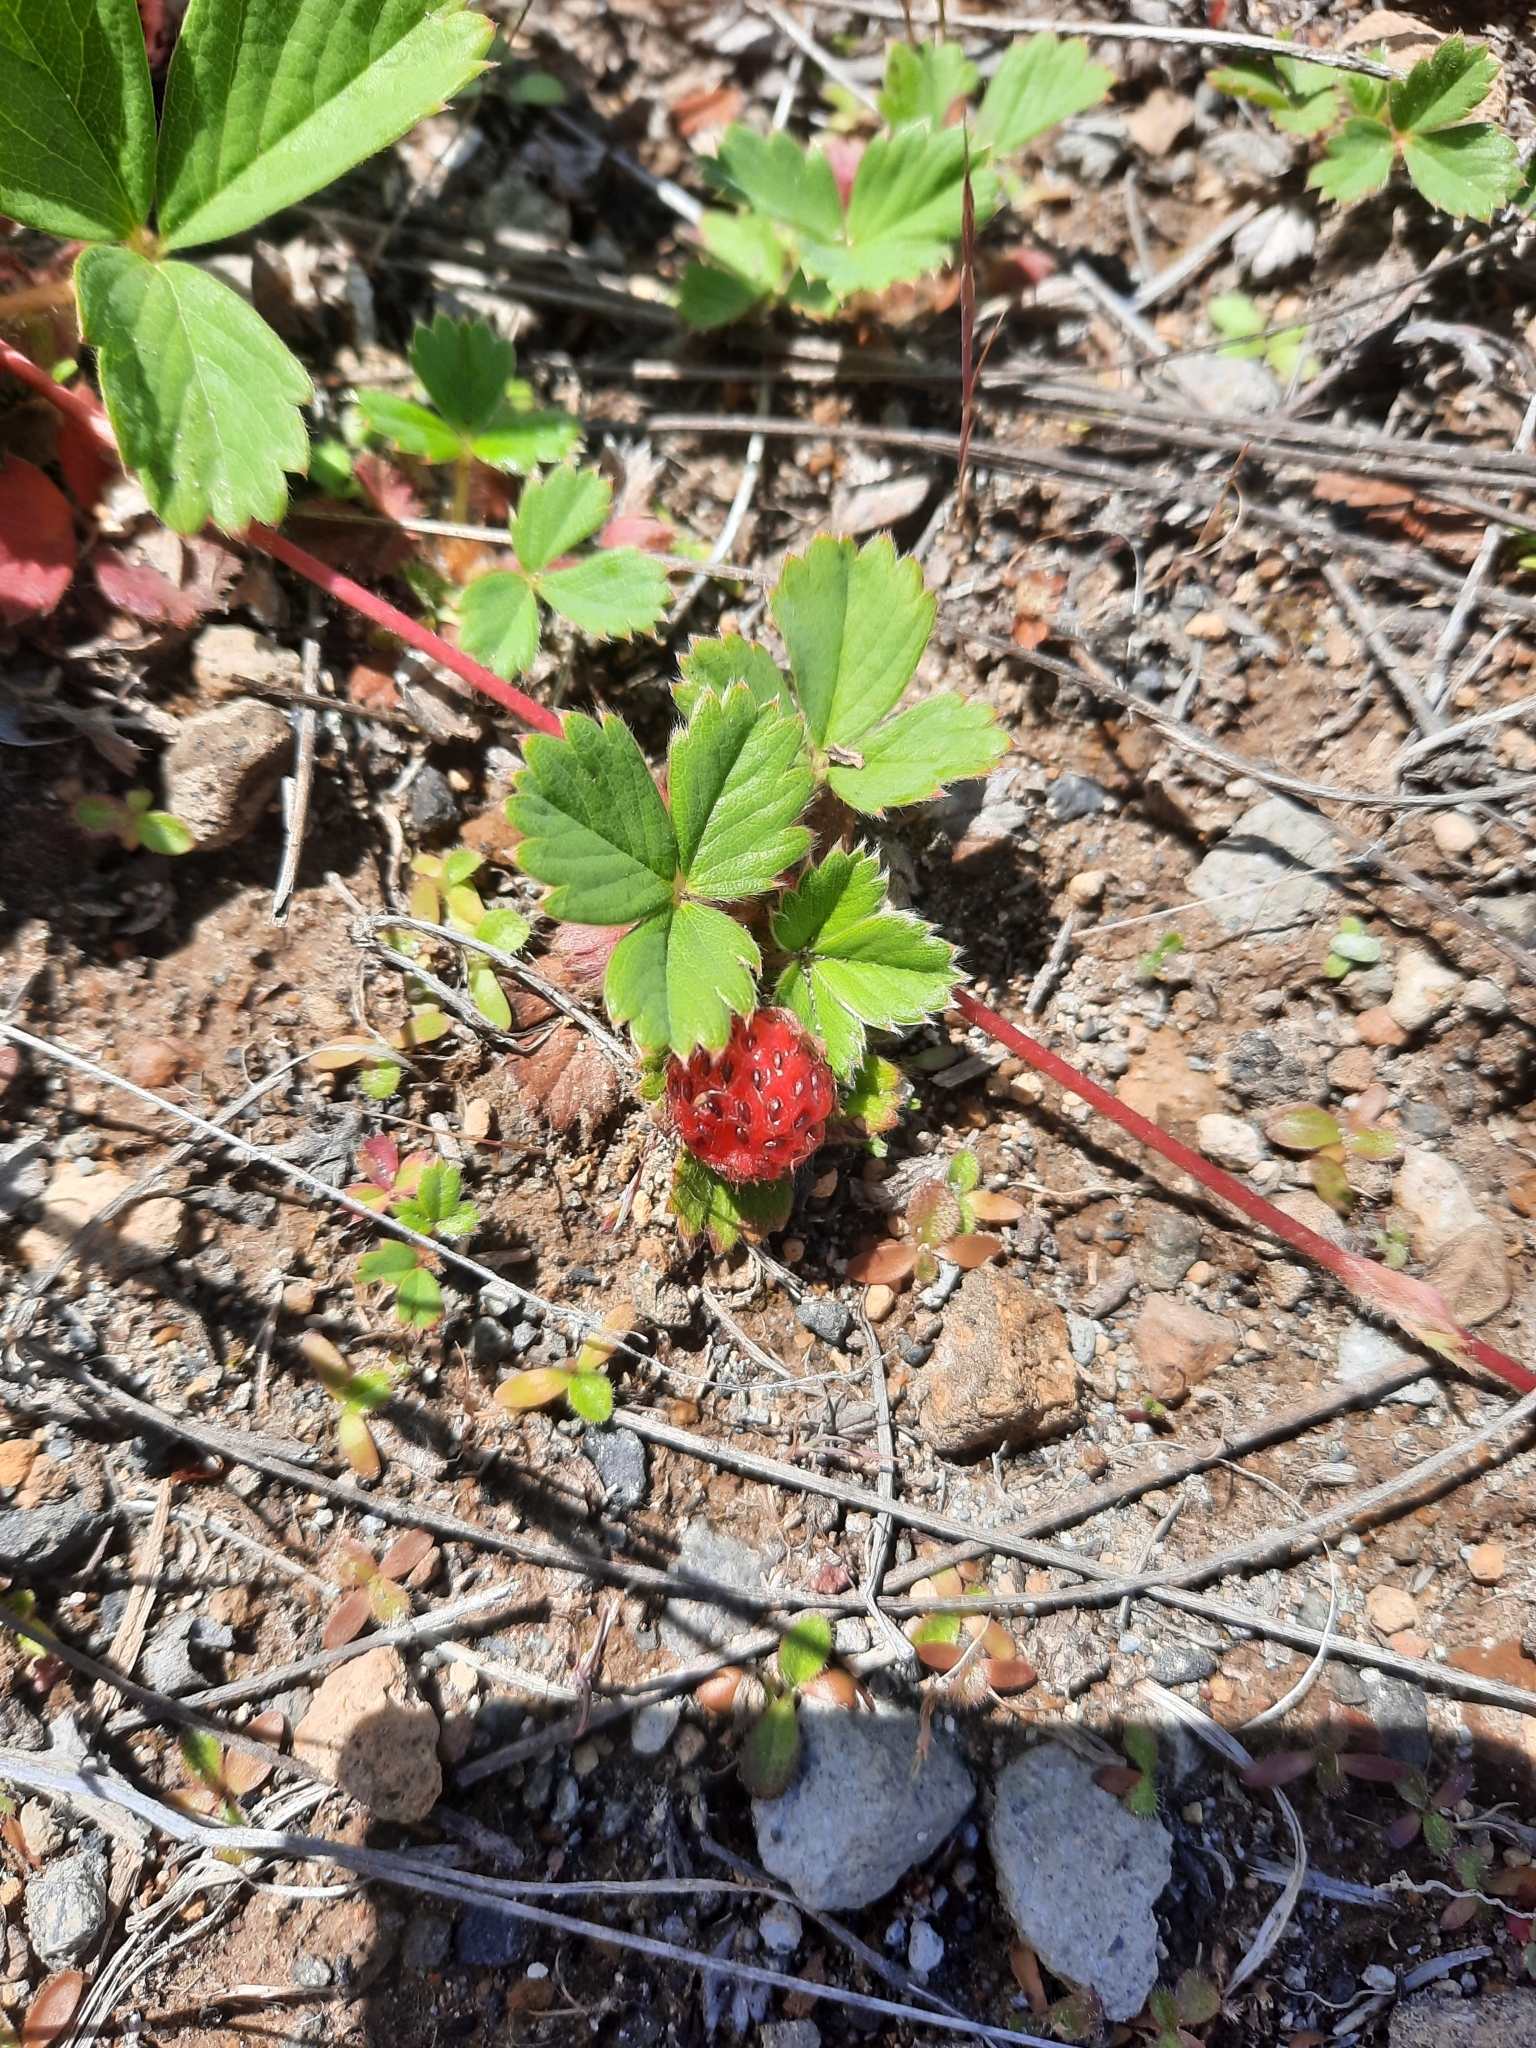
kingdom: Plantae
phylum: Tracheophyta
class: Magnoliopsida
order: Rosales
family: Rosaceae
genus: Fragaria
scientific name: Fragaria virginiana
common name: Thickleaved wild strawberry
